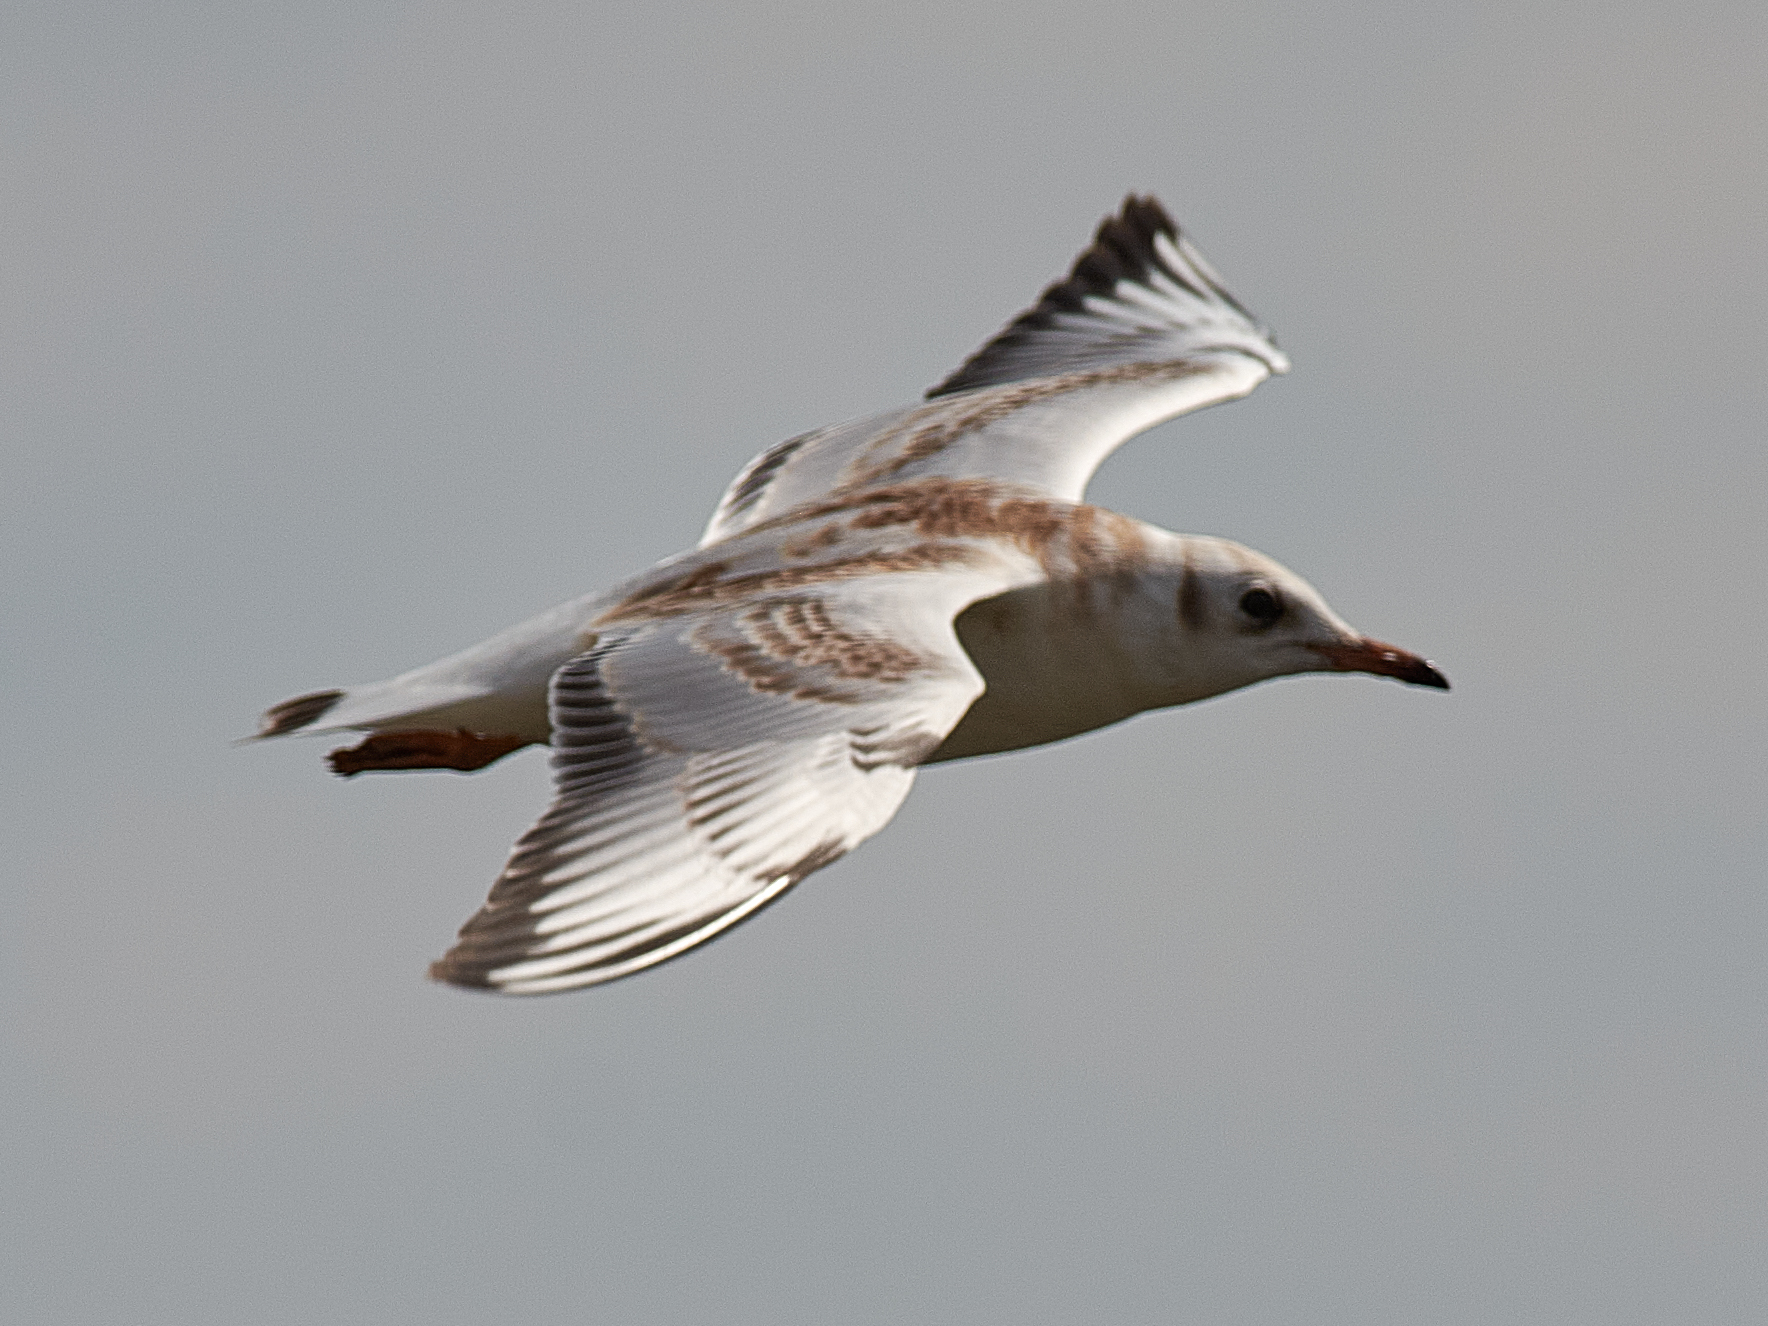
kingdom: Animalia
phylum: Chordata
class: Aves
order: Charadriiformes
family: Laridae
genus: Chroicocephalus
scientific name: Chroicocephalus ridibundus
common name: Black-headed gull
